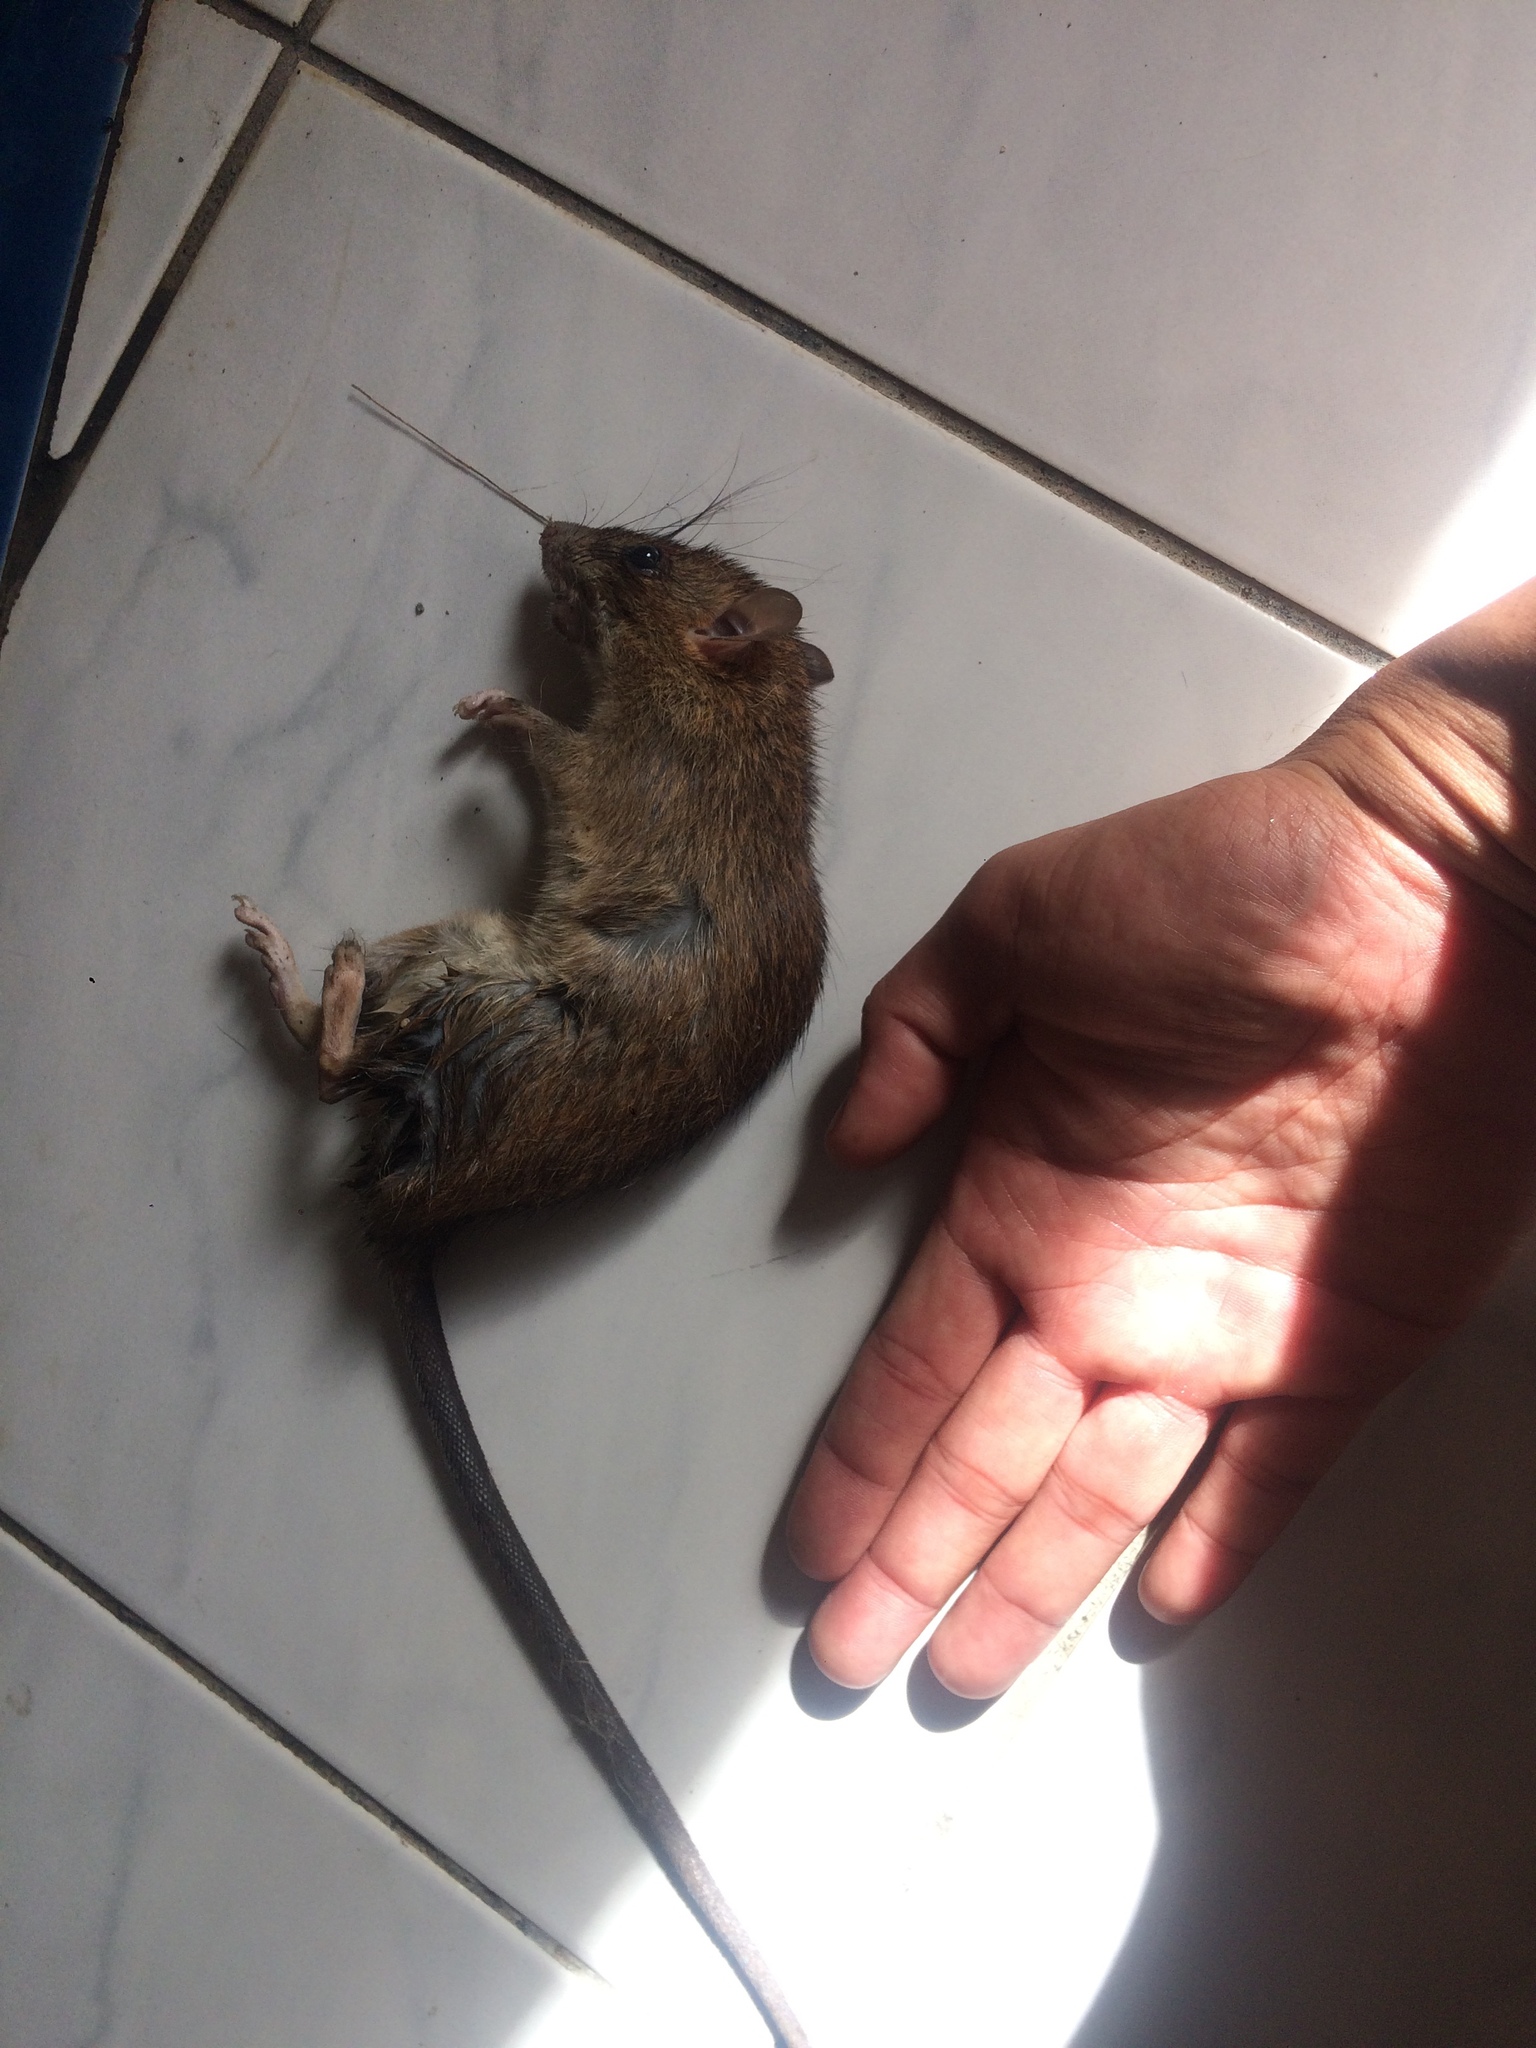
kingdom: Animalia
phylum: Chordata
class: Mammalia
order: Rodentia
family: Muridae
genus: Rattus
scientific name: Rattus rattus
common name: Black rat
